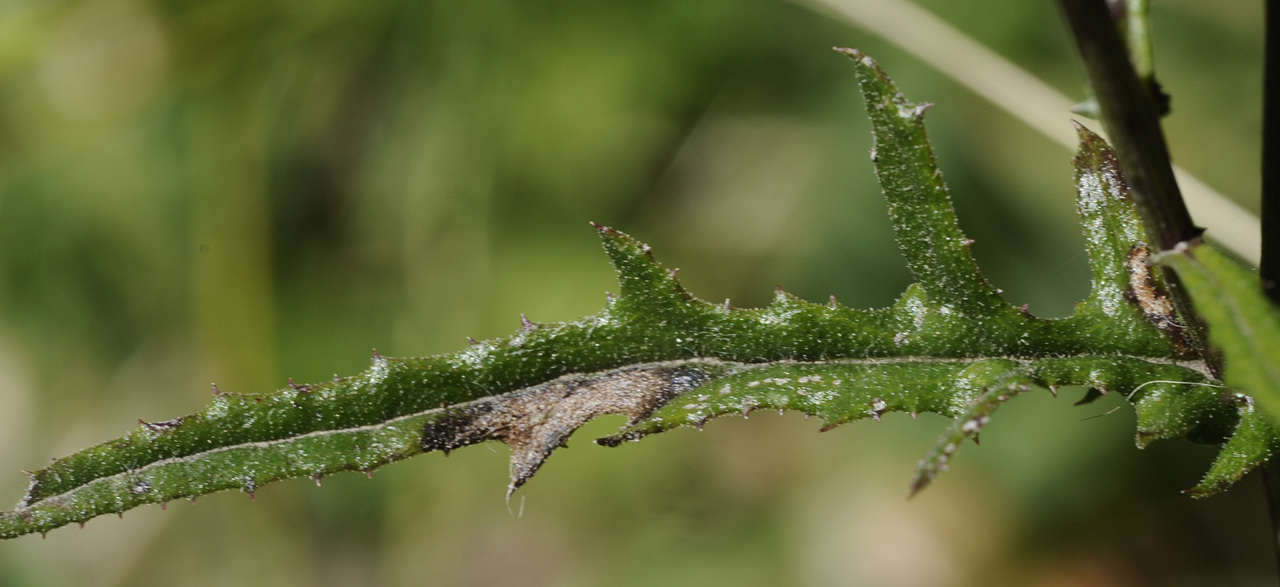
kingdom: Plantae
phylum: Tracheophyta
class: Magnoliopsida
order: Asterales
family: Asteraceae
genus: Senecio
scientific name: Senecio hispidulus
